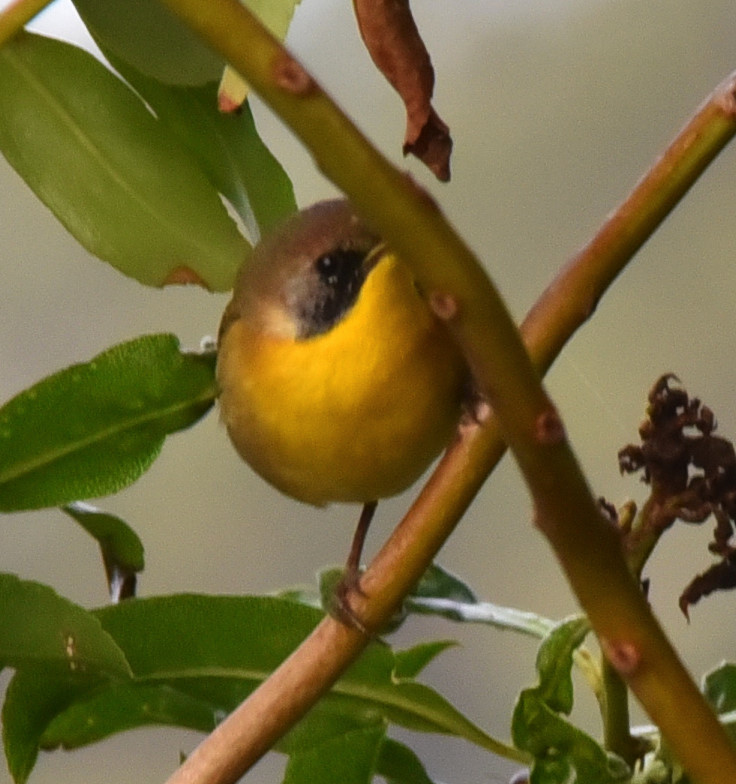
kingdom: Animalia
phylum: Chordata
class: Aves
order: Passeriformes
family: Parulidae
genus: Geothlypis
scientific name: Geothlypis trichas
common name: Common yellowthroat
